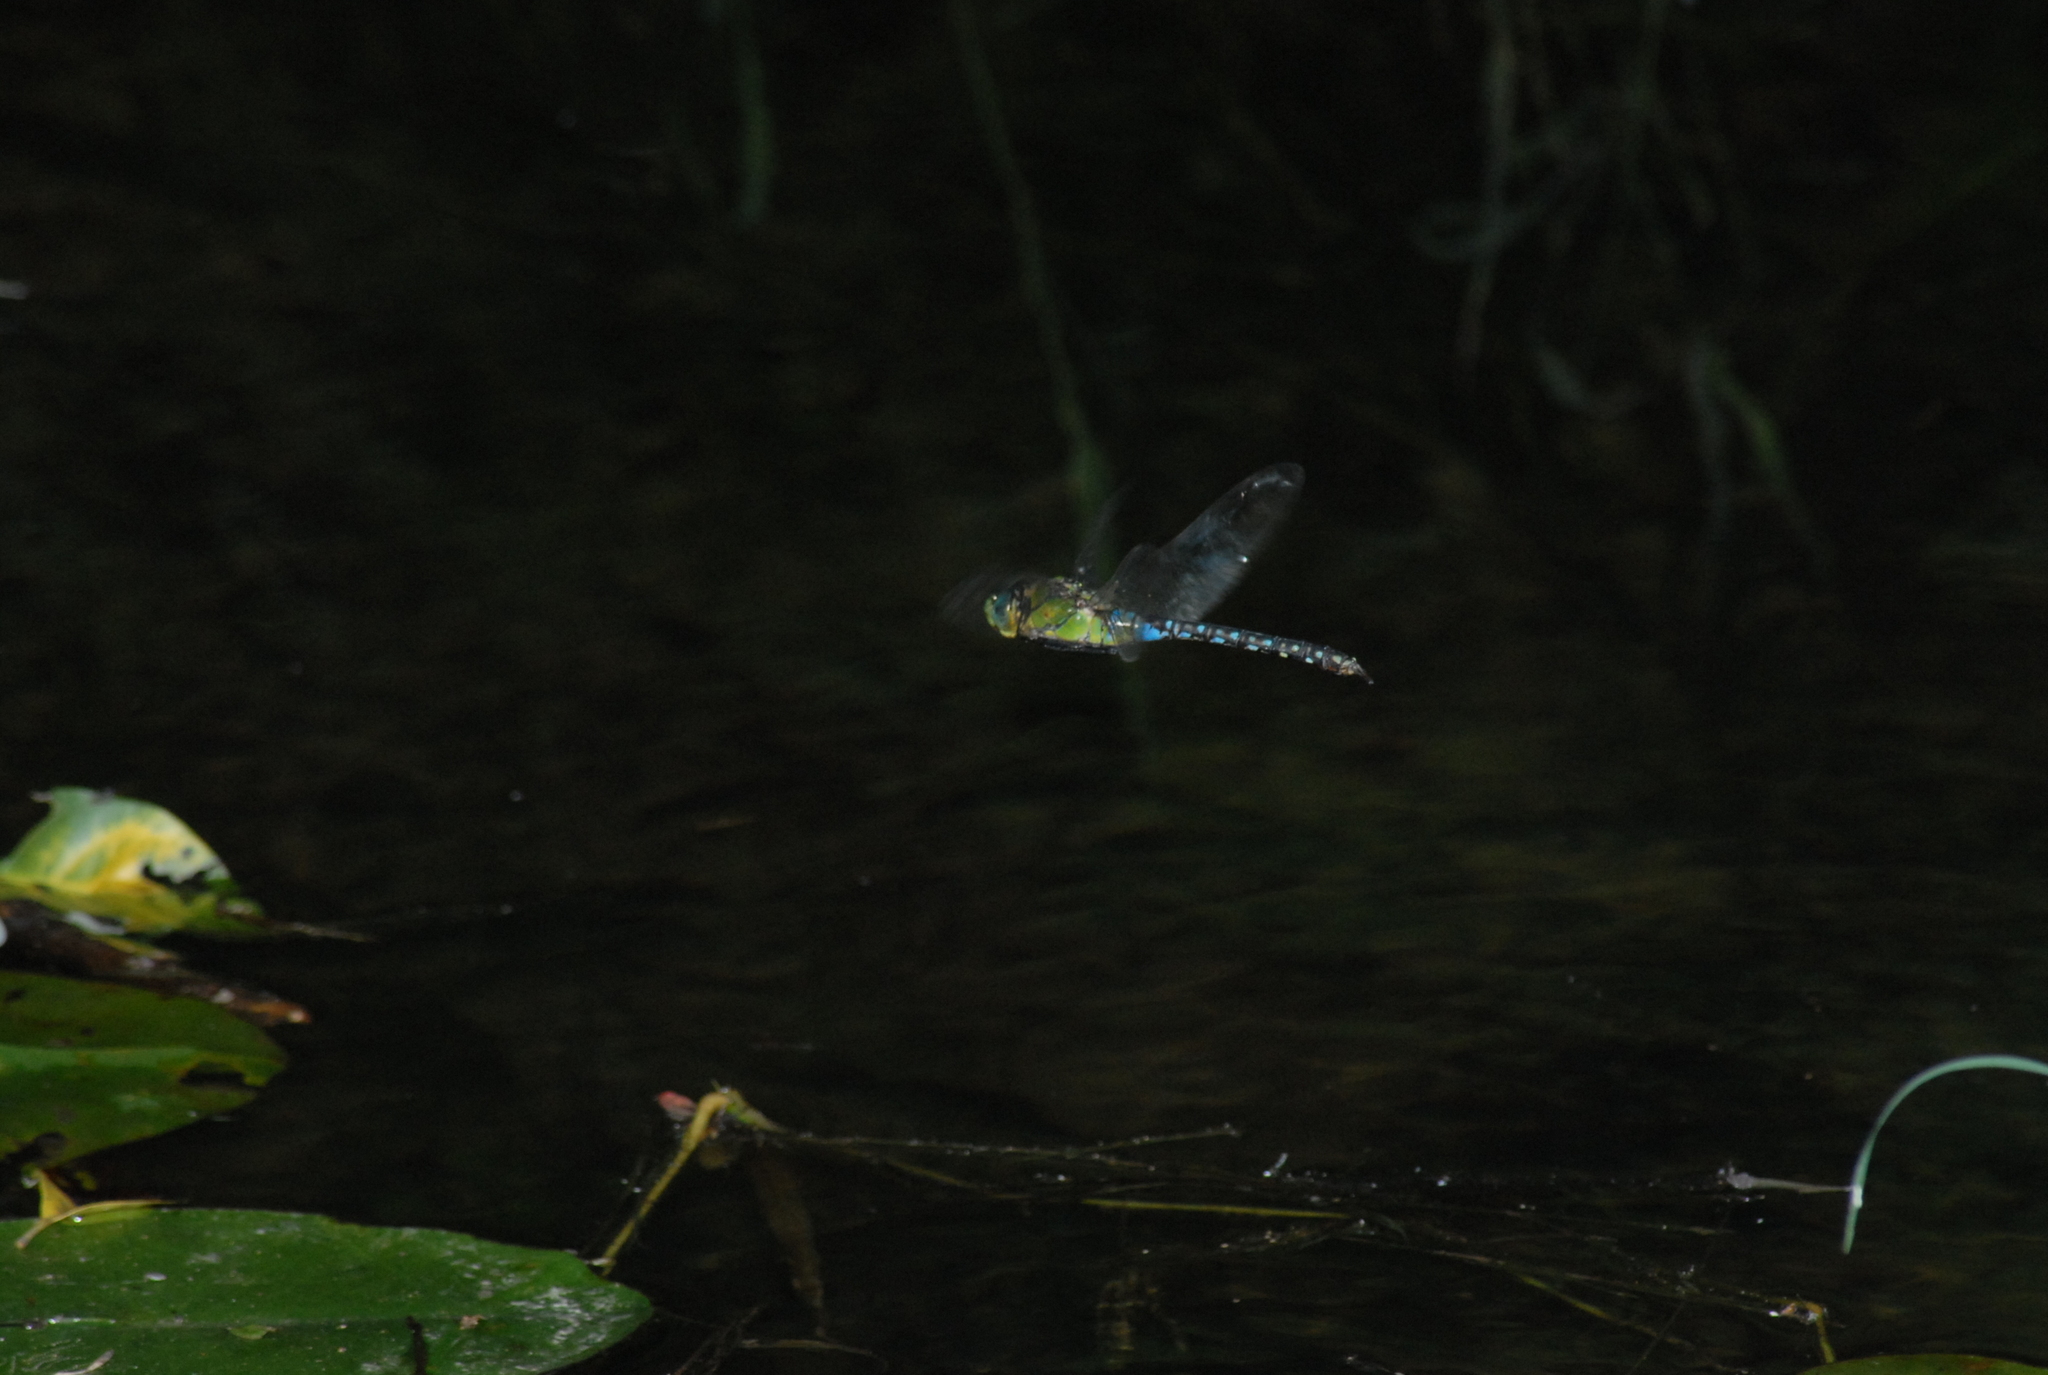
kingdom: Animalia
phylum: Arthropoda
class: Insecta
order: Odonata
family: Aeshnidae
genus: Anax
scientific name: Anax nigrofasciatus
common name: Blue-spotted emperor
